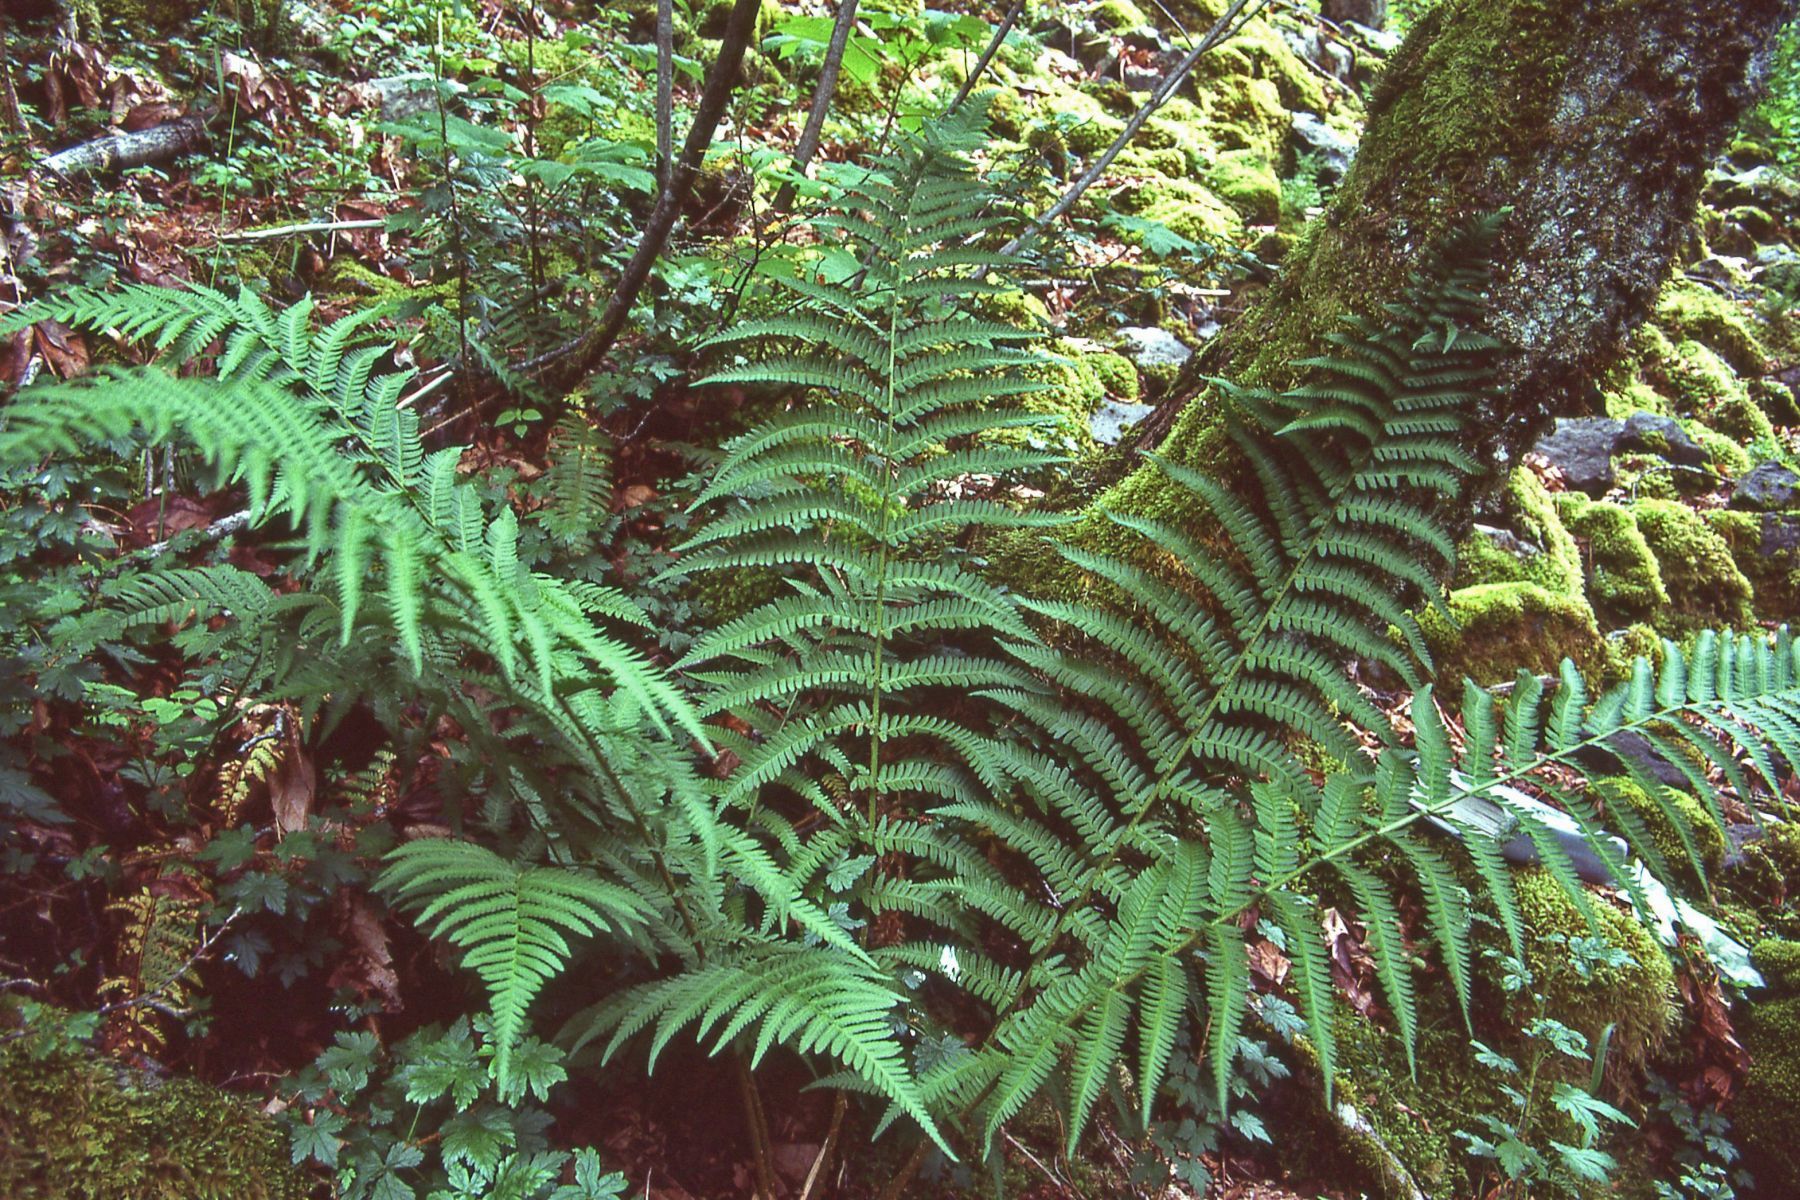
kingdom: Plantae
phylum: Tracheophyta
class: Polypodiopsida
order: Polypodiales
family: Dryopteridaceae
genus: Dryopteris
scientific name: Dryopteris filix-mas
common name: Male fern
